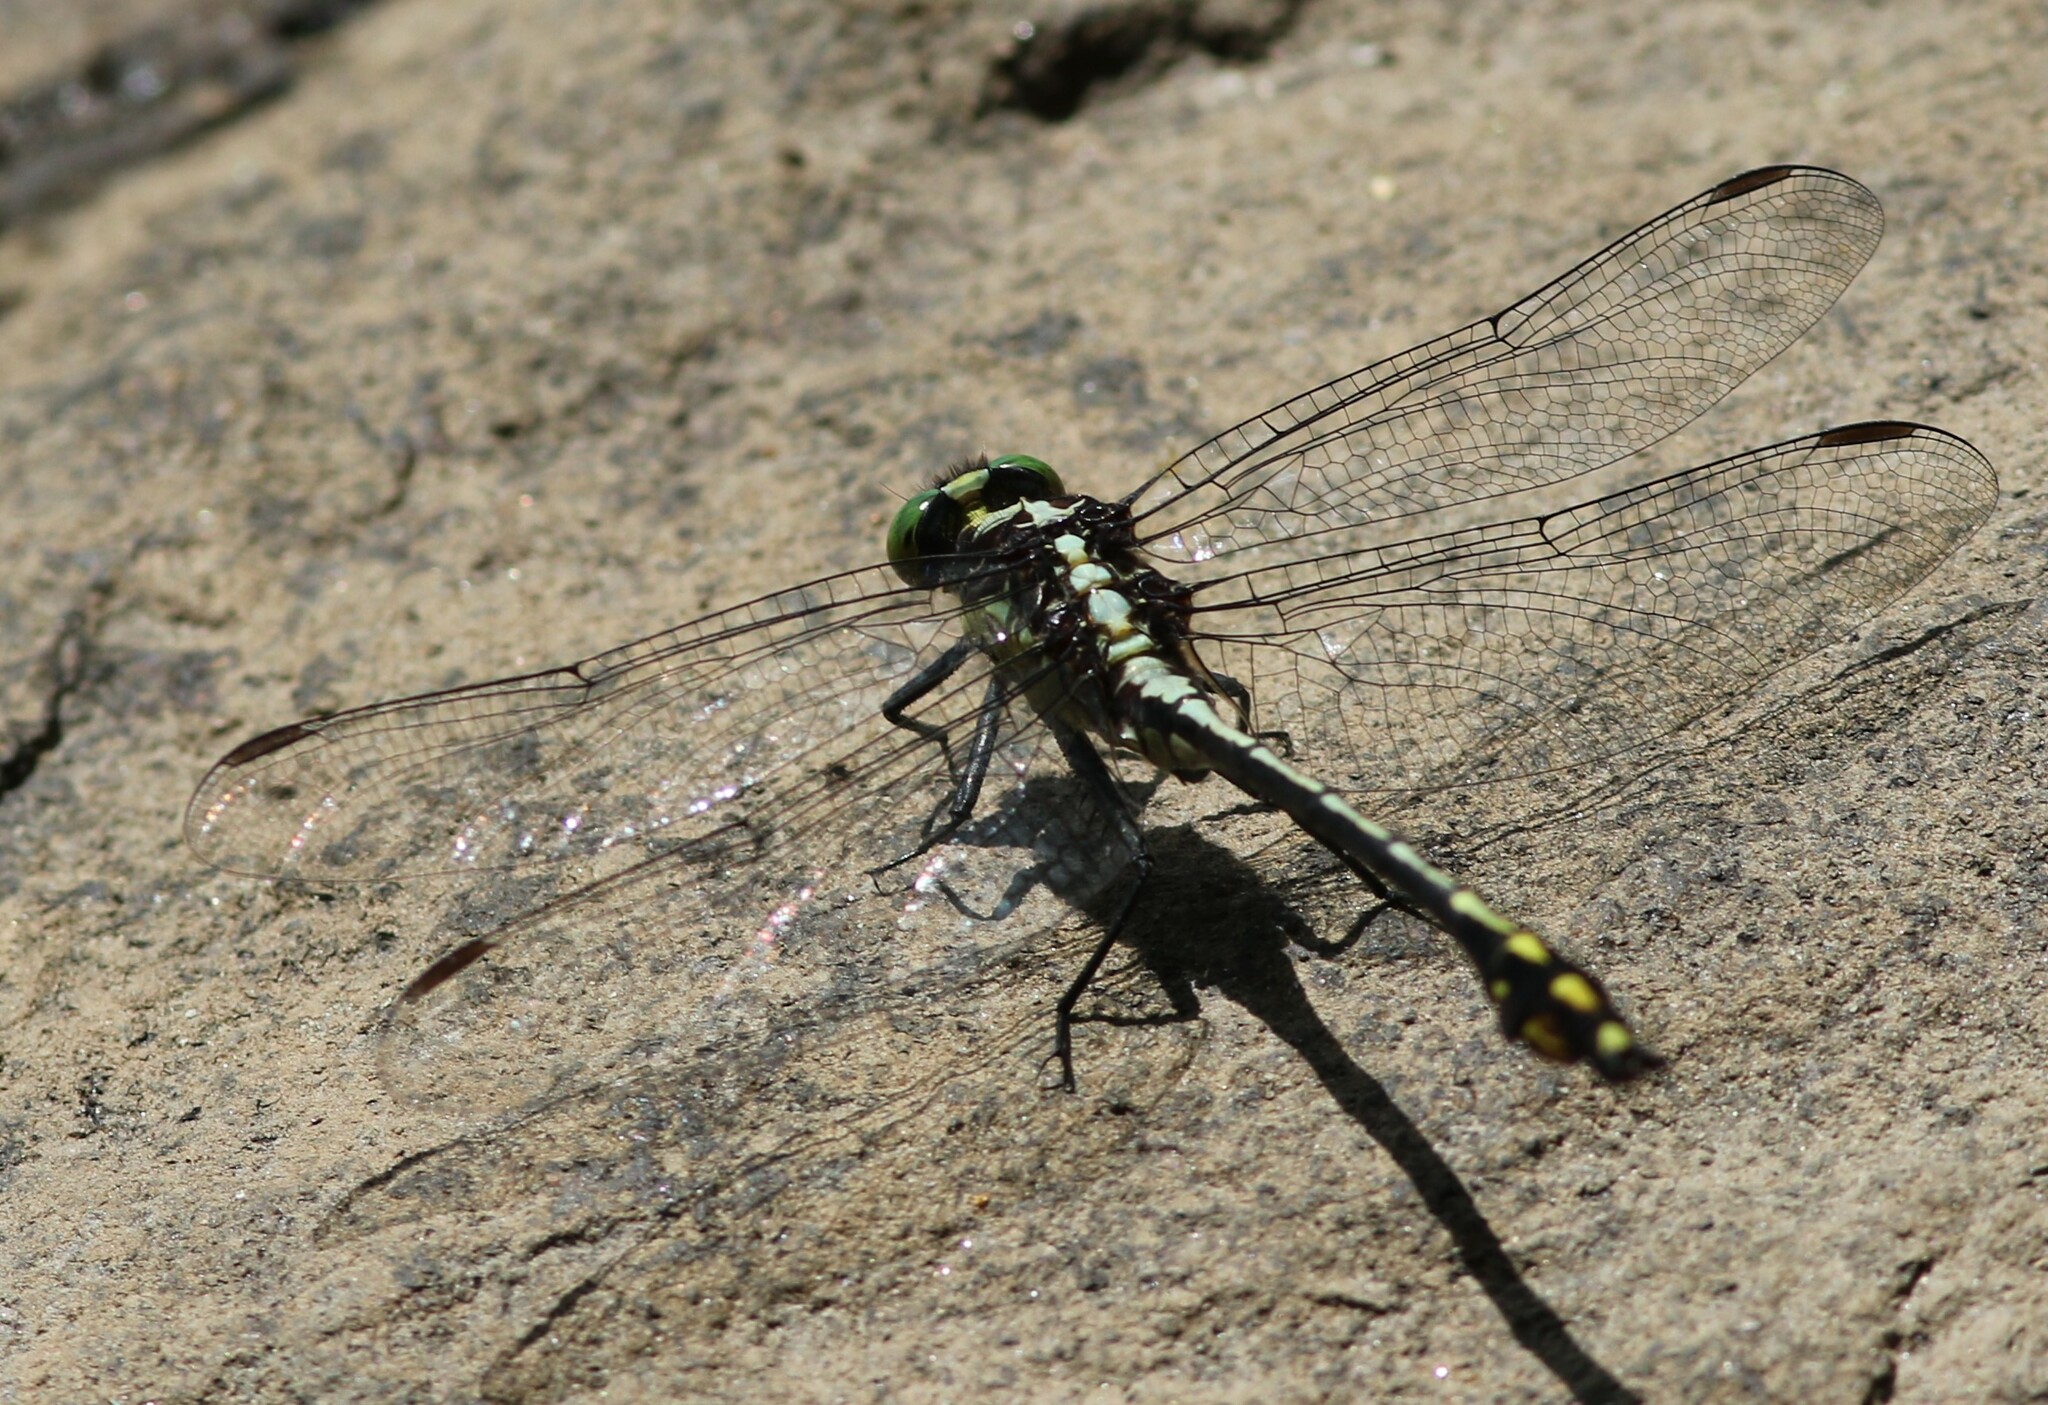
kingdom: Animalia
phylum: Arthropoda
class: Insecta
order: Odonata
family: Gomphidae
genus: Dromogomphus
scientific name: Dromogomphus spinosus
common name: Black-shouldered spinyleg
